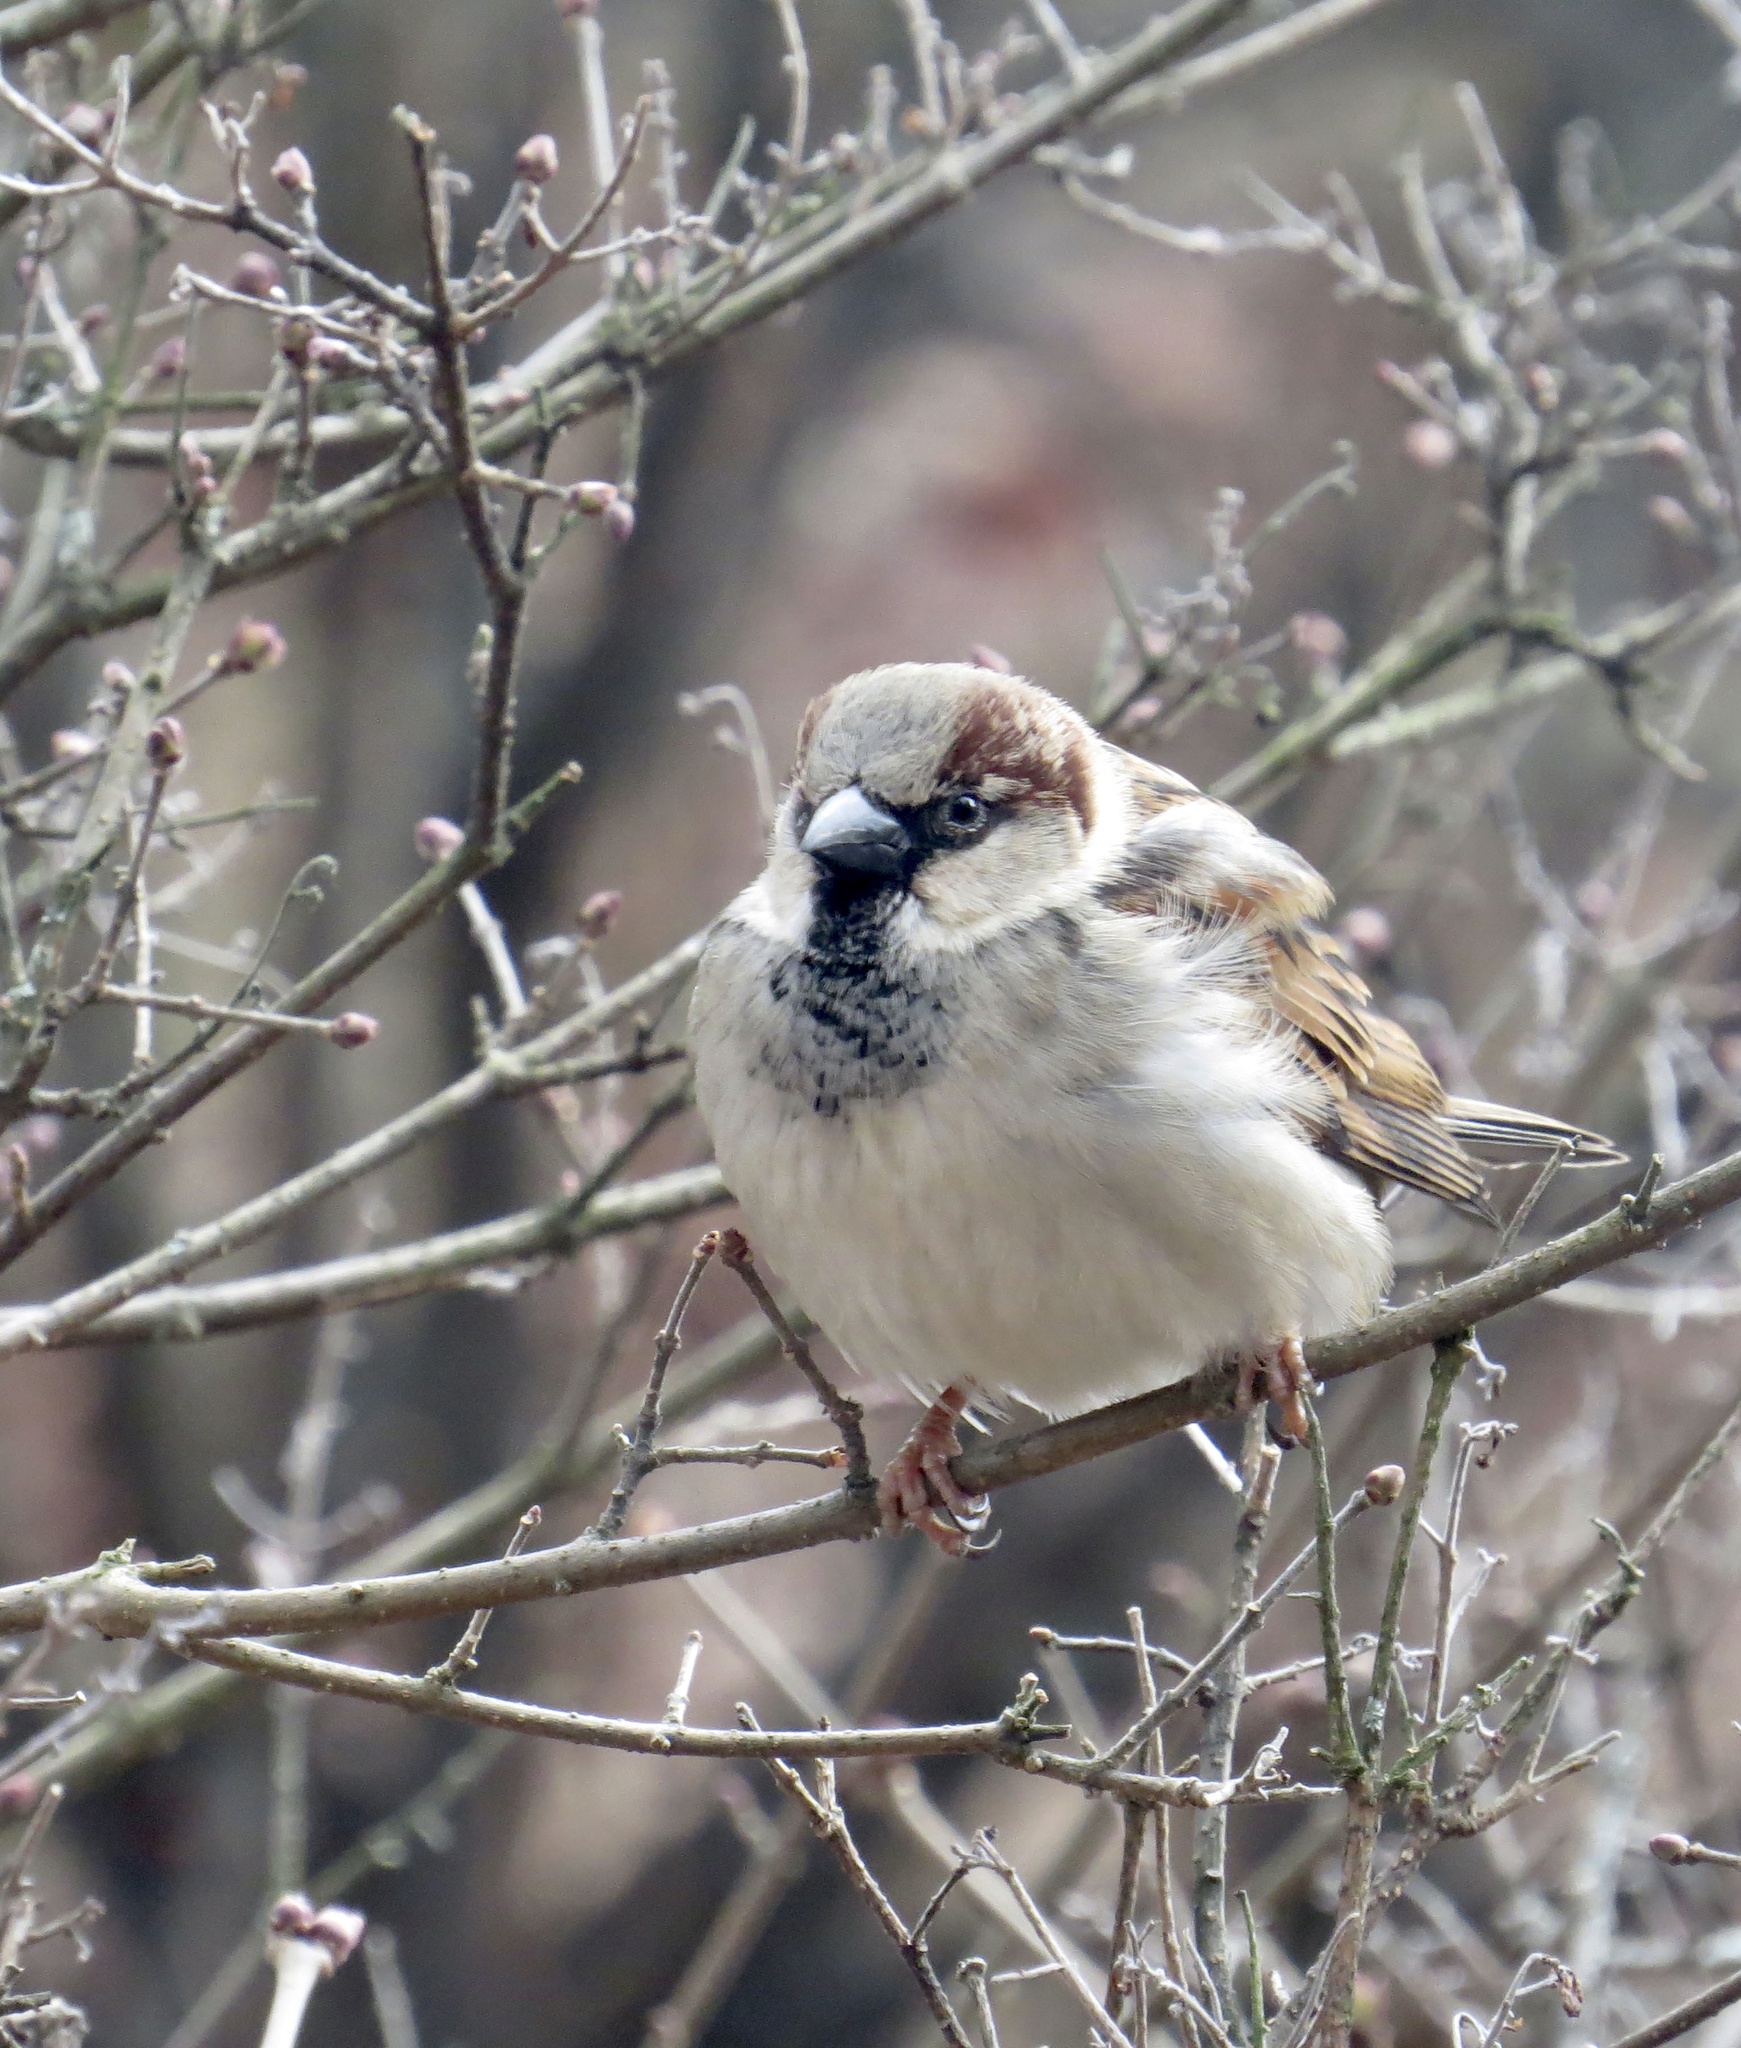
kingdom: Animalia
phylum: Chordata
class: Aves
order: Passeriformes
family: Passeridae
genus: Passer
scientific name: Passer domesticus
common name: House sparrow
